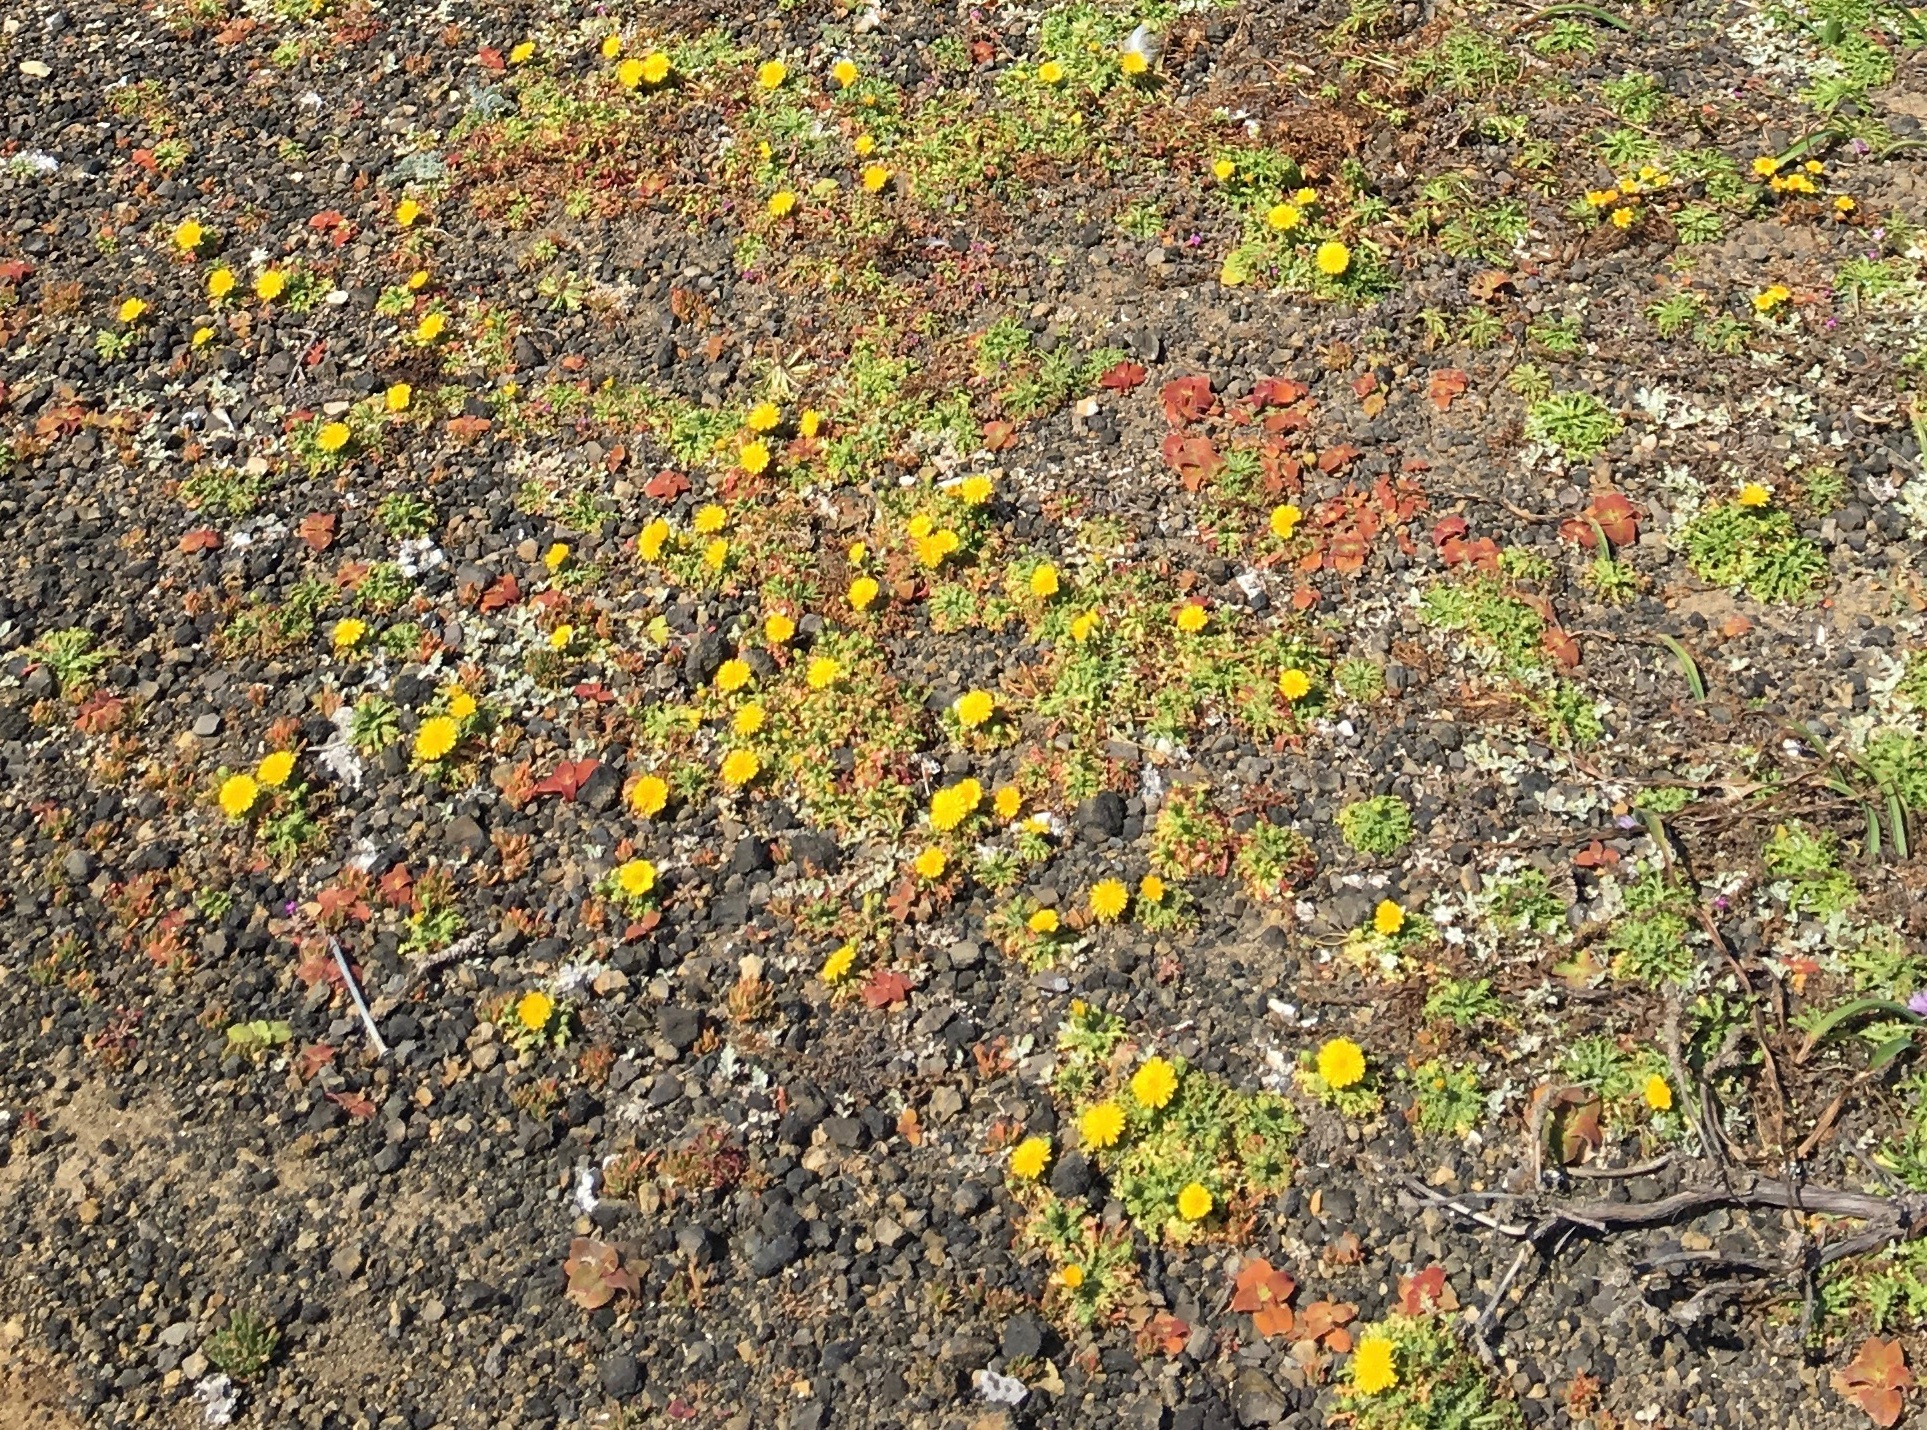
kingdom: Plantae
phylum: Tracheophyta
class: Magnoliopsida
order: Asterales
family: Asteraceae
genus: Malacothrix
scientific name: Malacothrix foliosa
